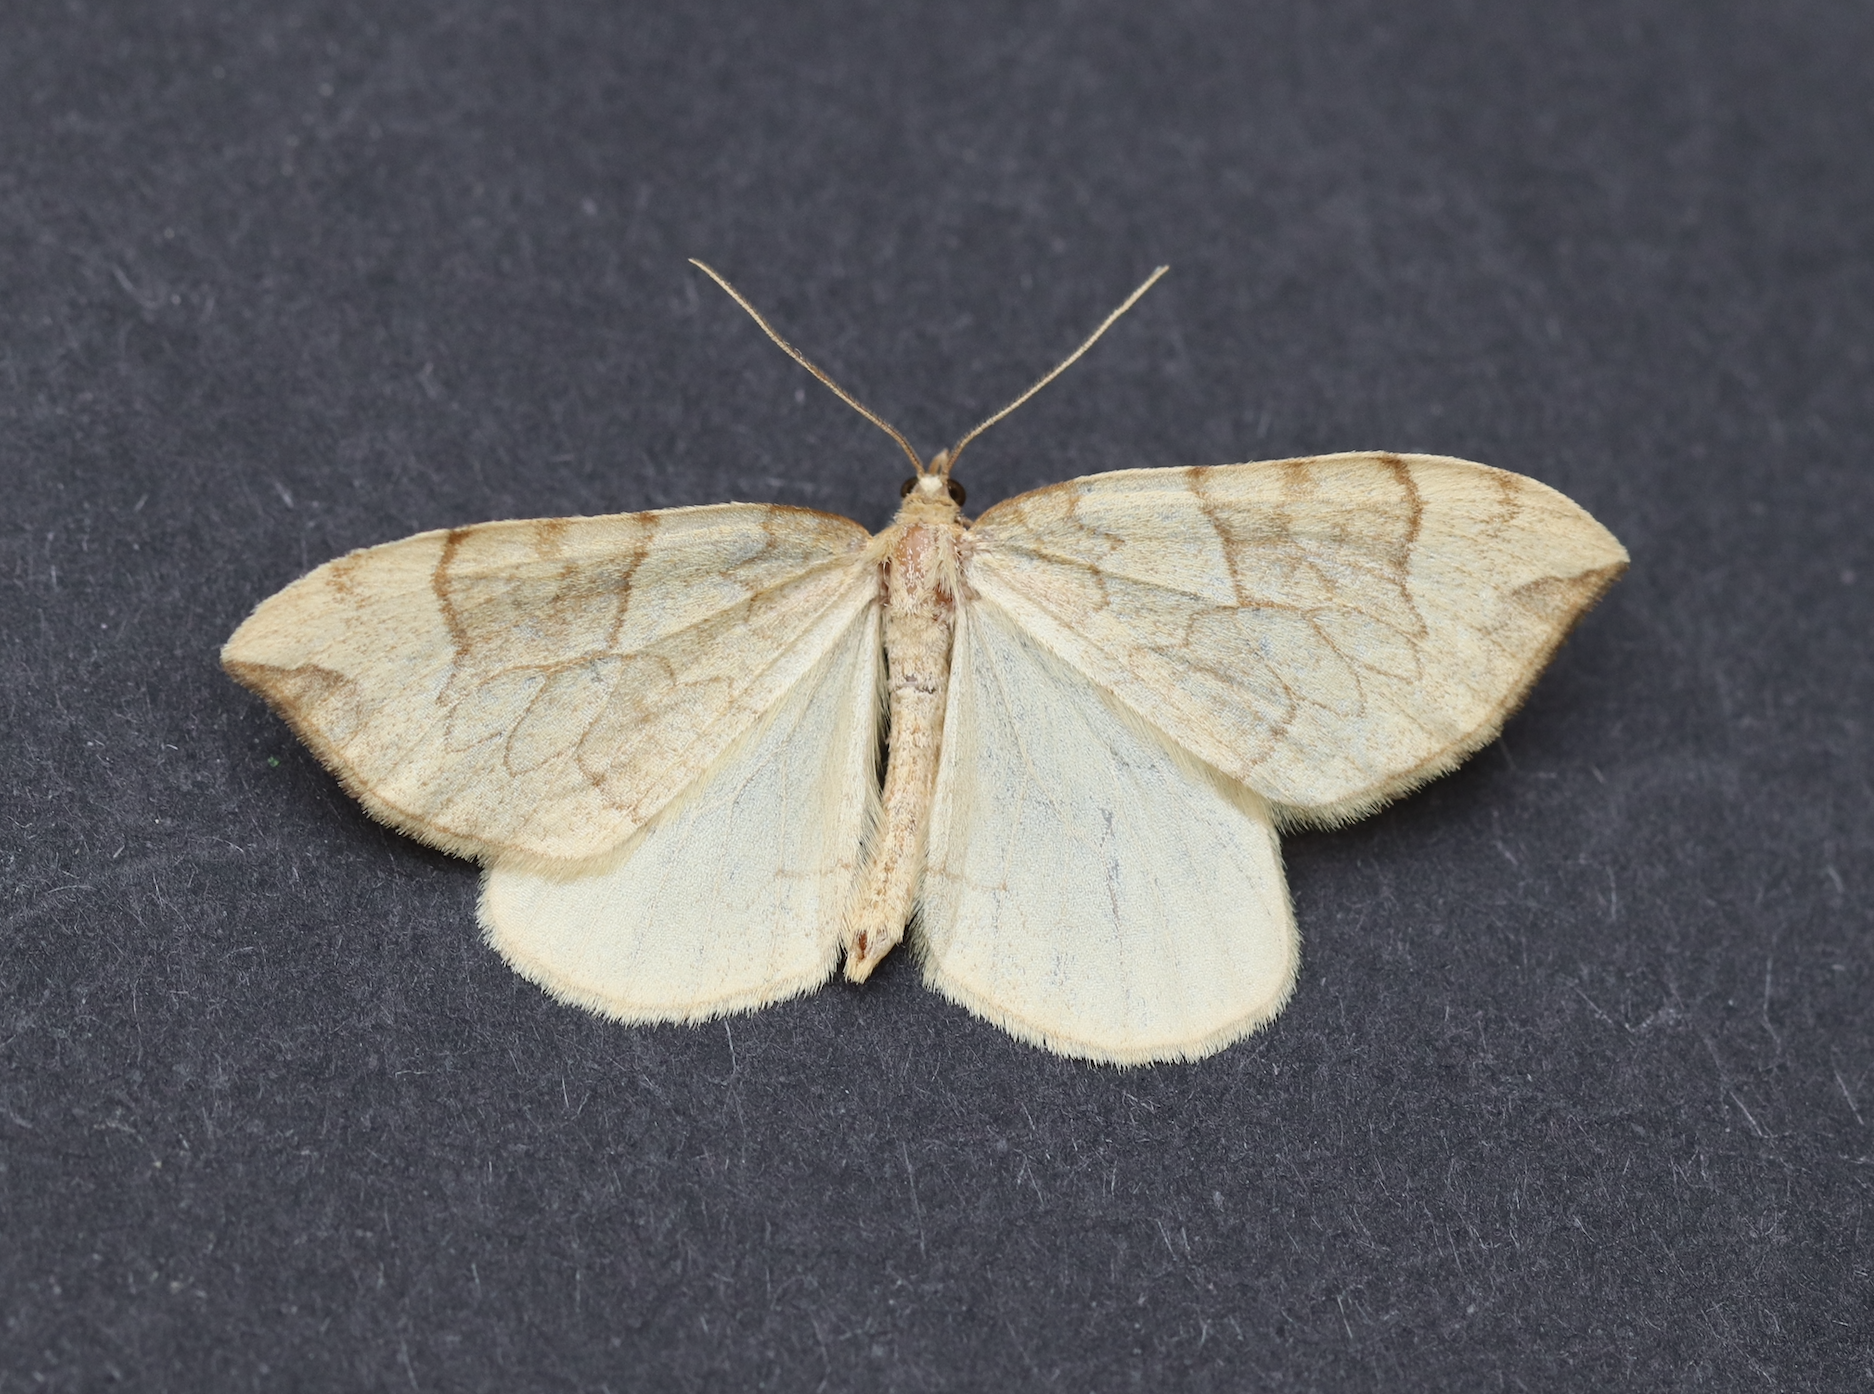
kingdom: Animalia
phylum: Arthropoda
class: Insecta
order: Lepidoptera
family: Geometridae
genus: Eulithis
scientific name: Eulithis propulsata
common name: Currant eulithis moth
